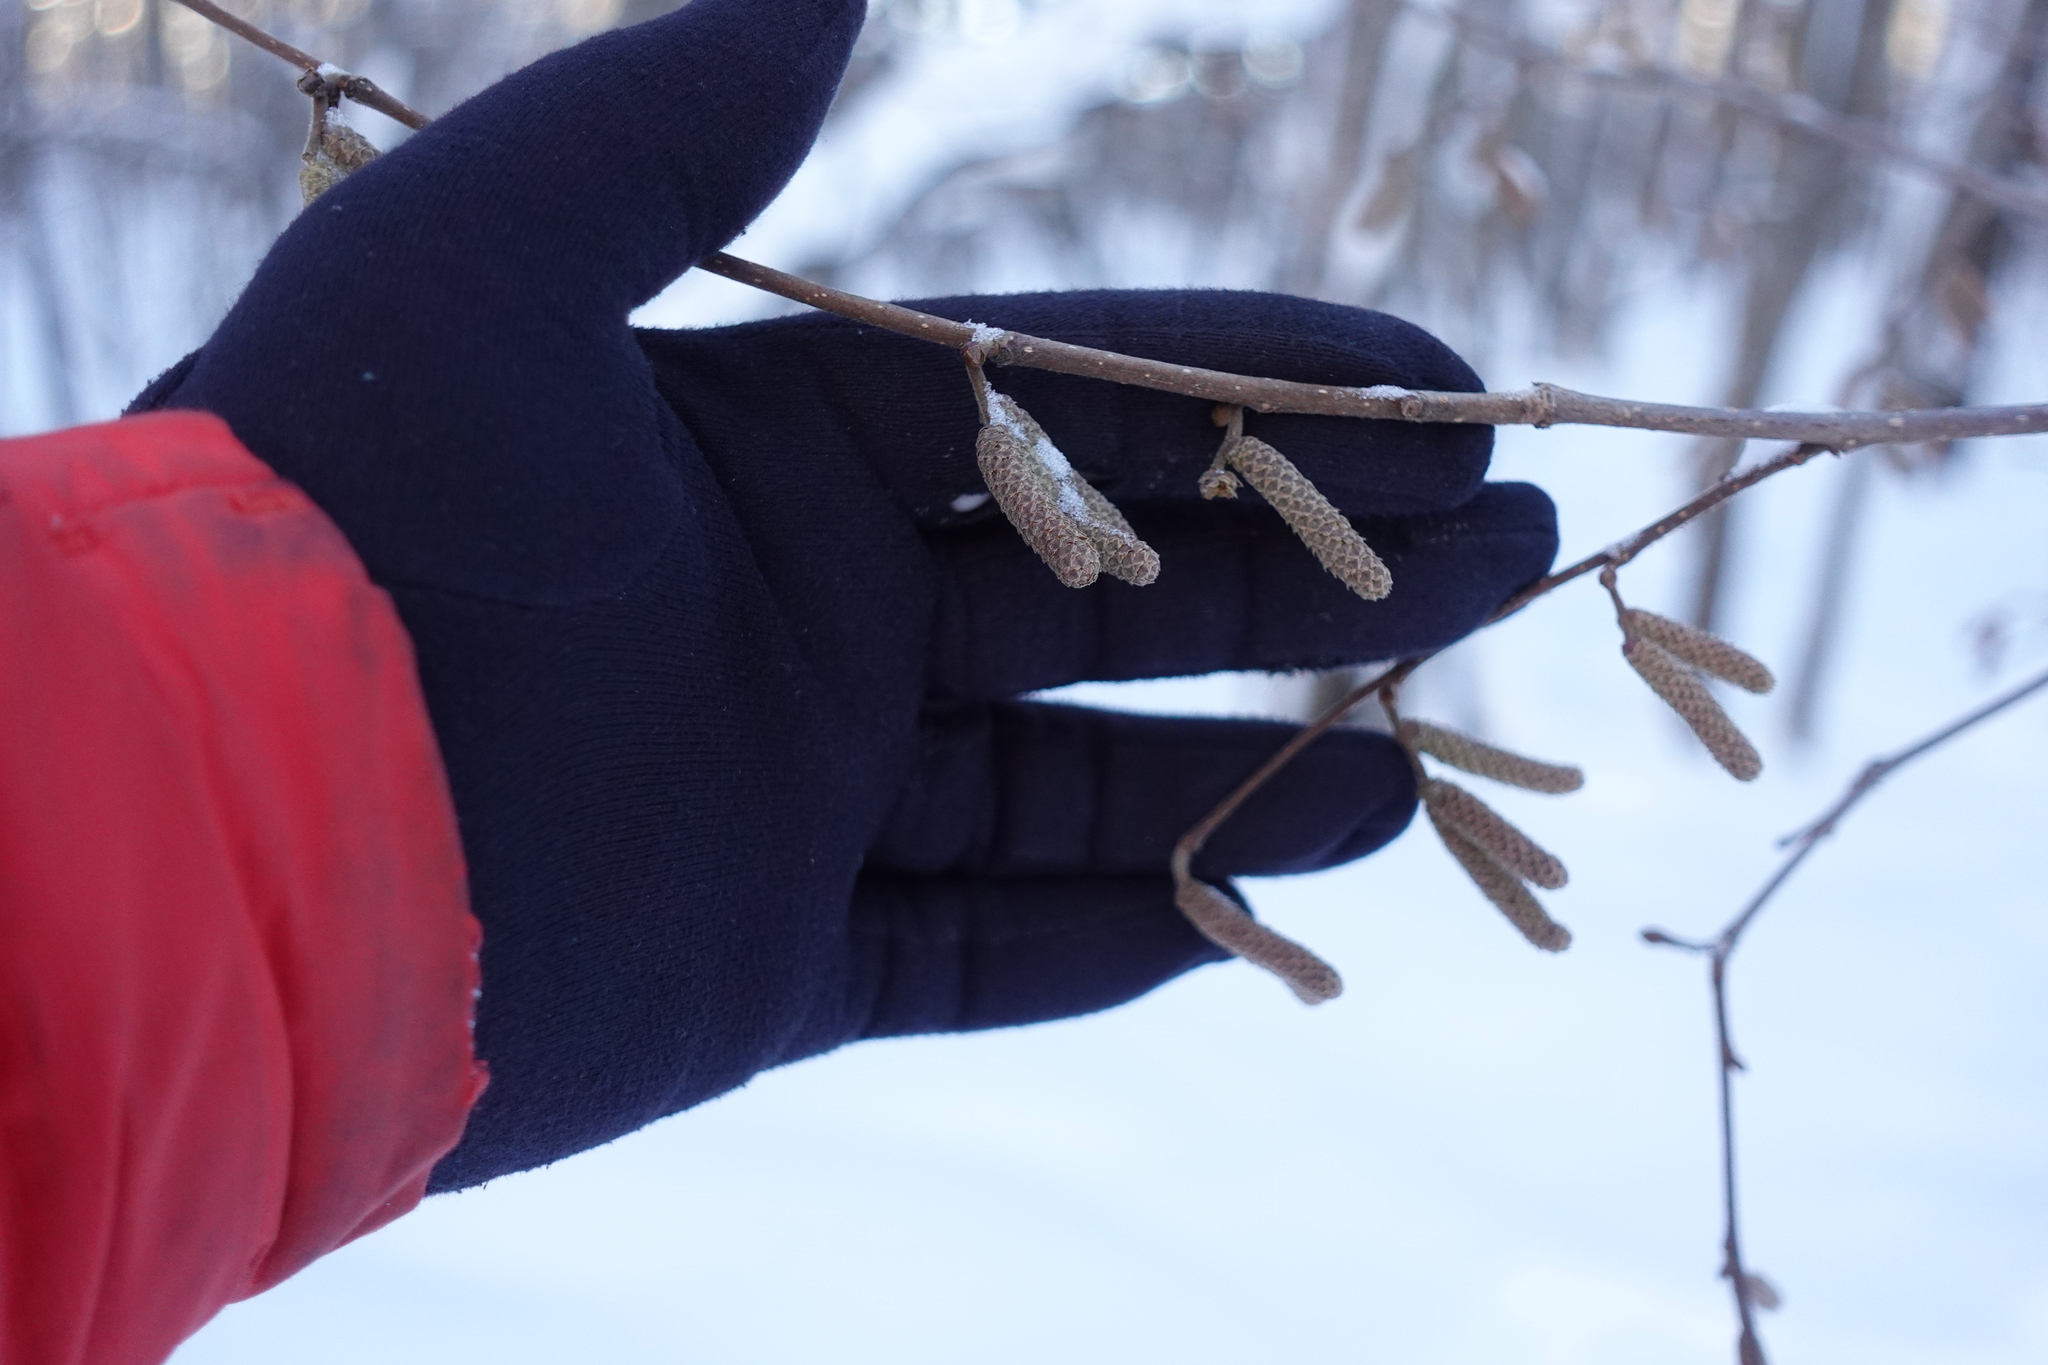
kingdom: Plantae
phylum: Tracheophyta
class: Magnoliopsida
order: Fagales
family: Betulaceae
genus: Corylus
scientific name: Corylus avellana
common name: European hazel
